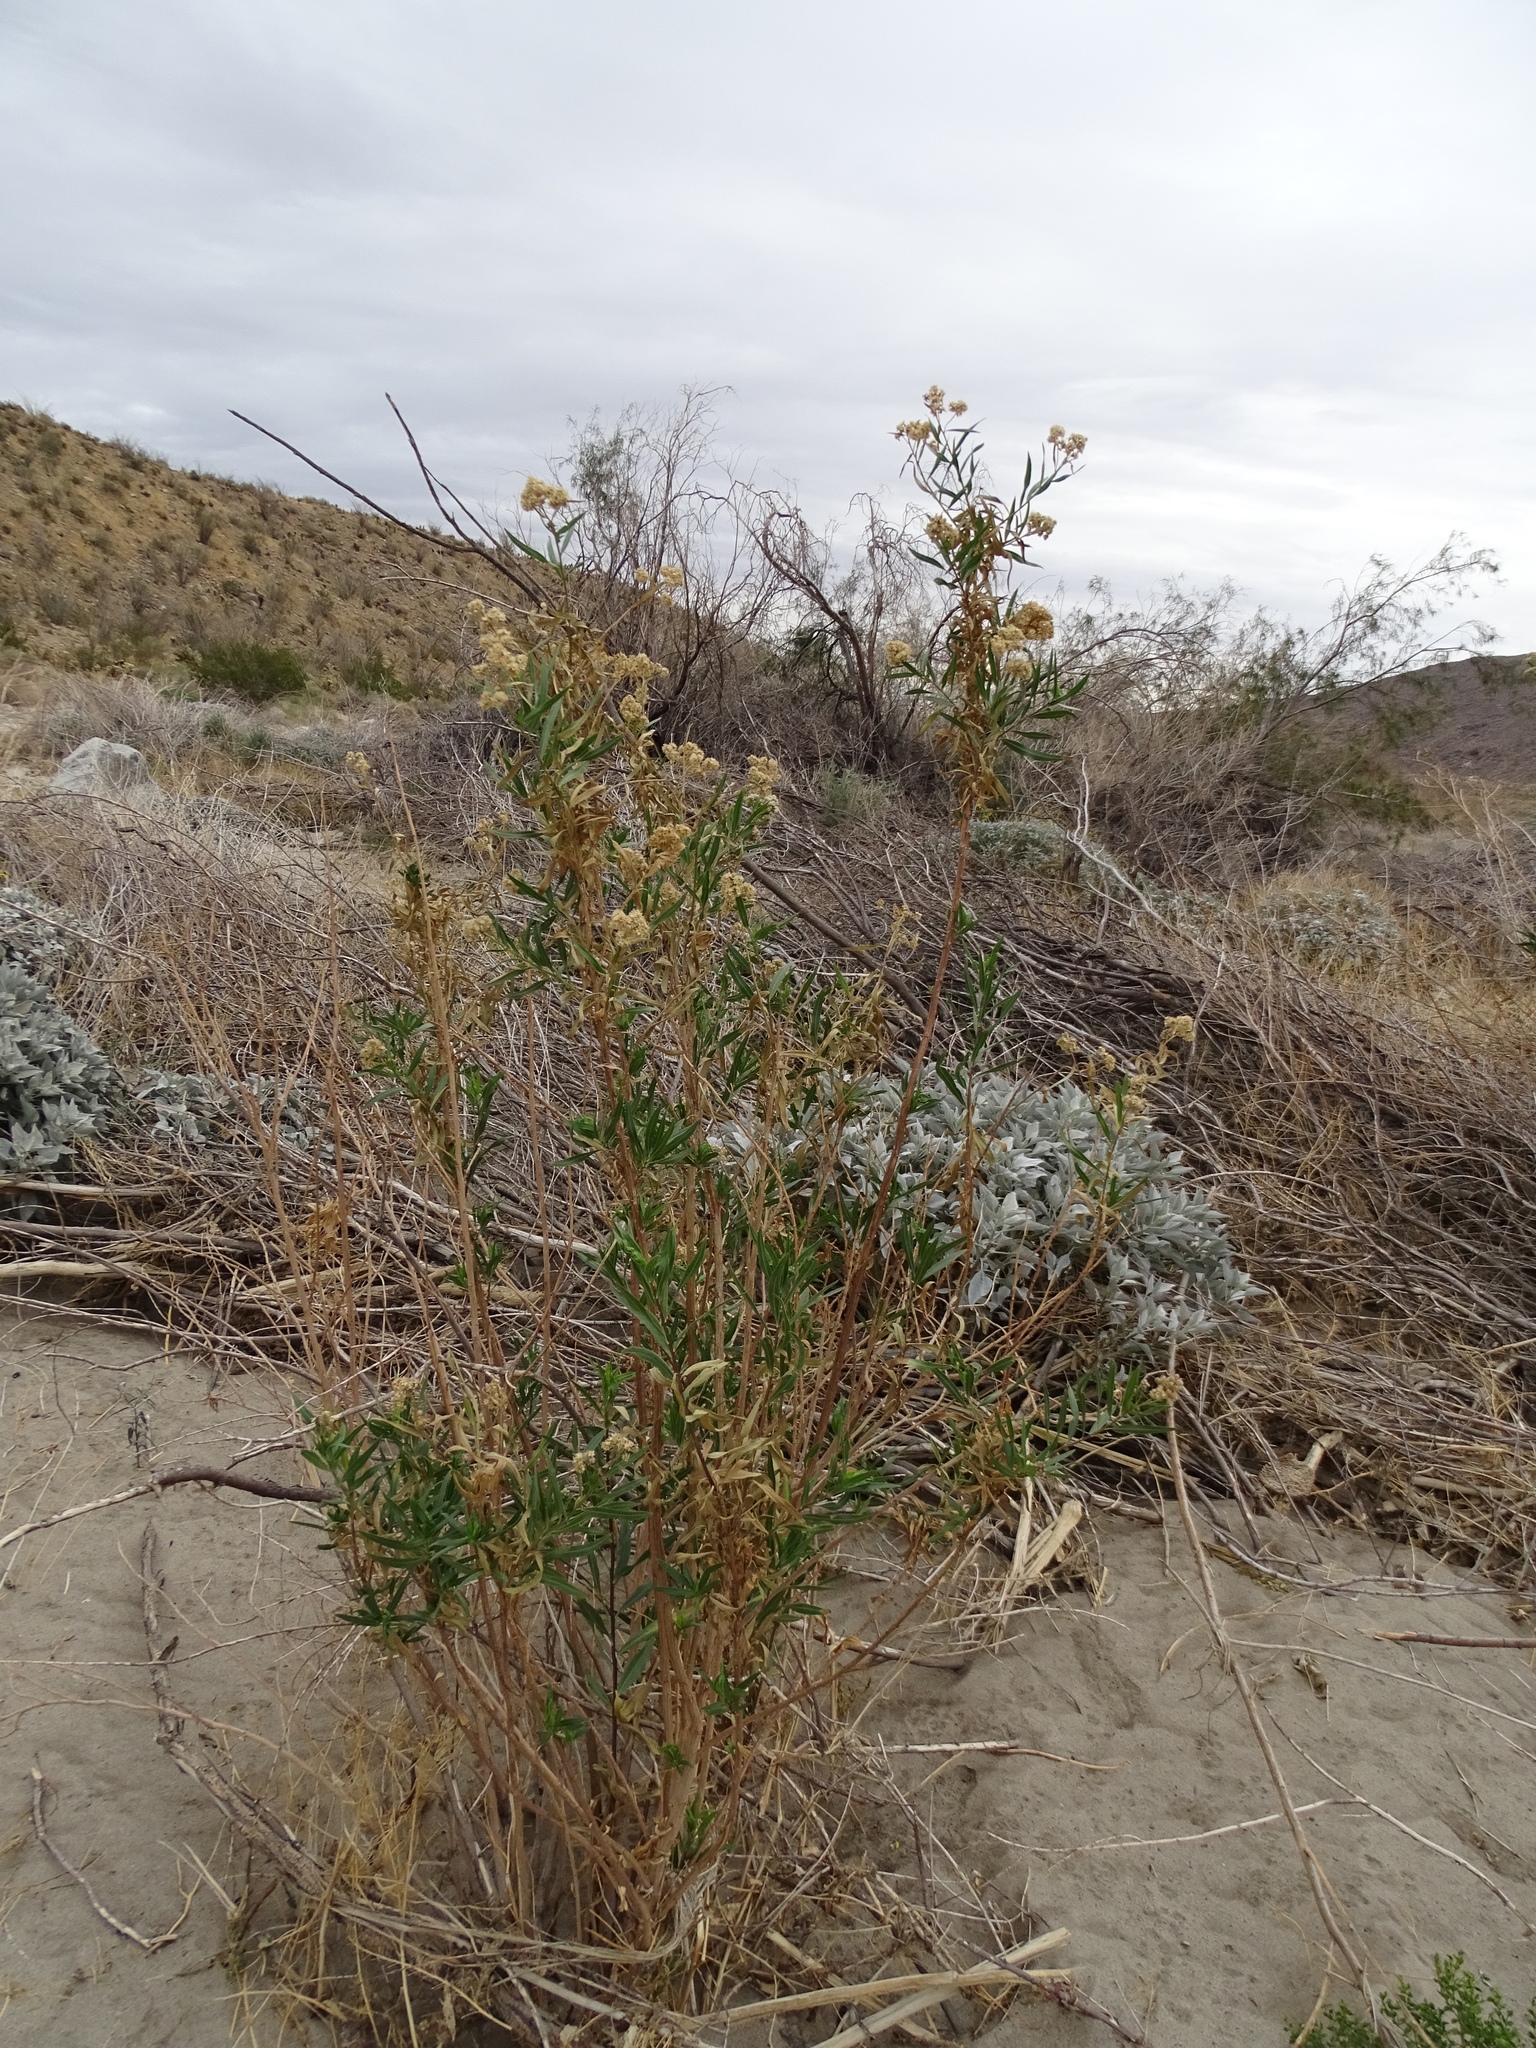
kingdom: Plantae
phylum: Tracheophyta
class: Magnoliopsida
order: Asterales
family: Asteraceae
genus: Baccharis
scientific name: Baccharis salicifolia
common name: Sticky baccharis
